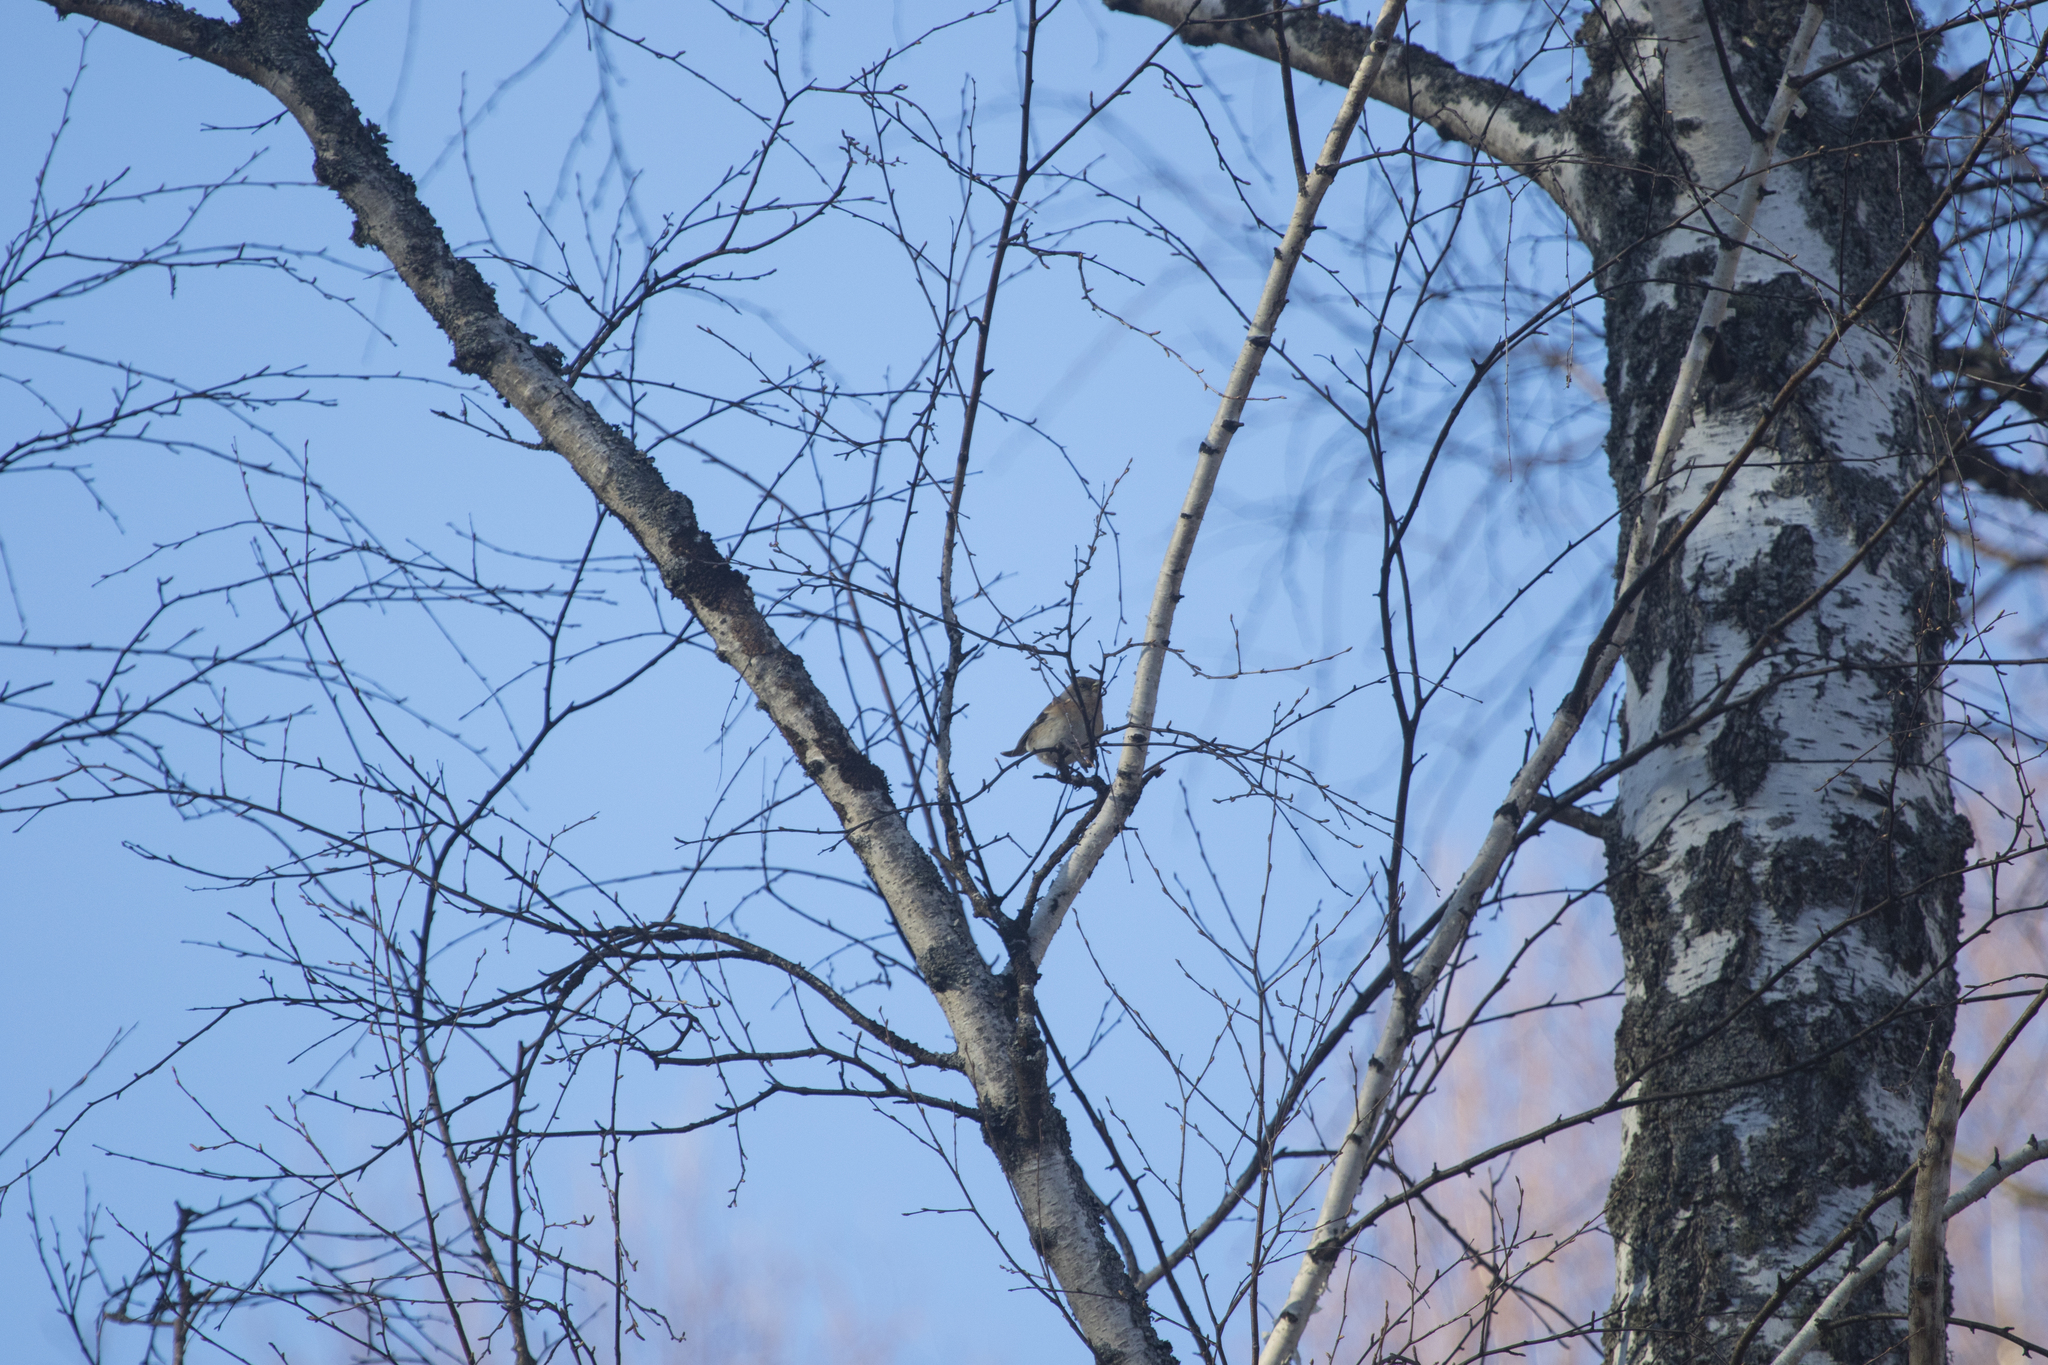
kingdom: Animalia
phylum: Chordata
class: Aves
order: Passeriformes
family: Fringillidae
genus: Fringilla
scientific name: Fringilla montifringilla
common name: Brambling
